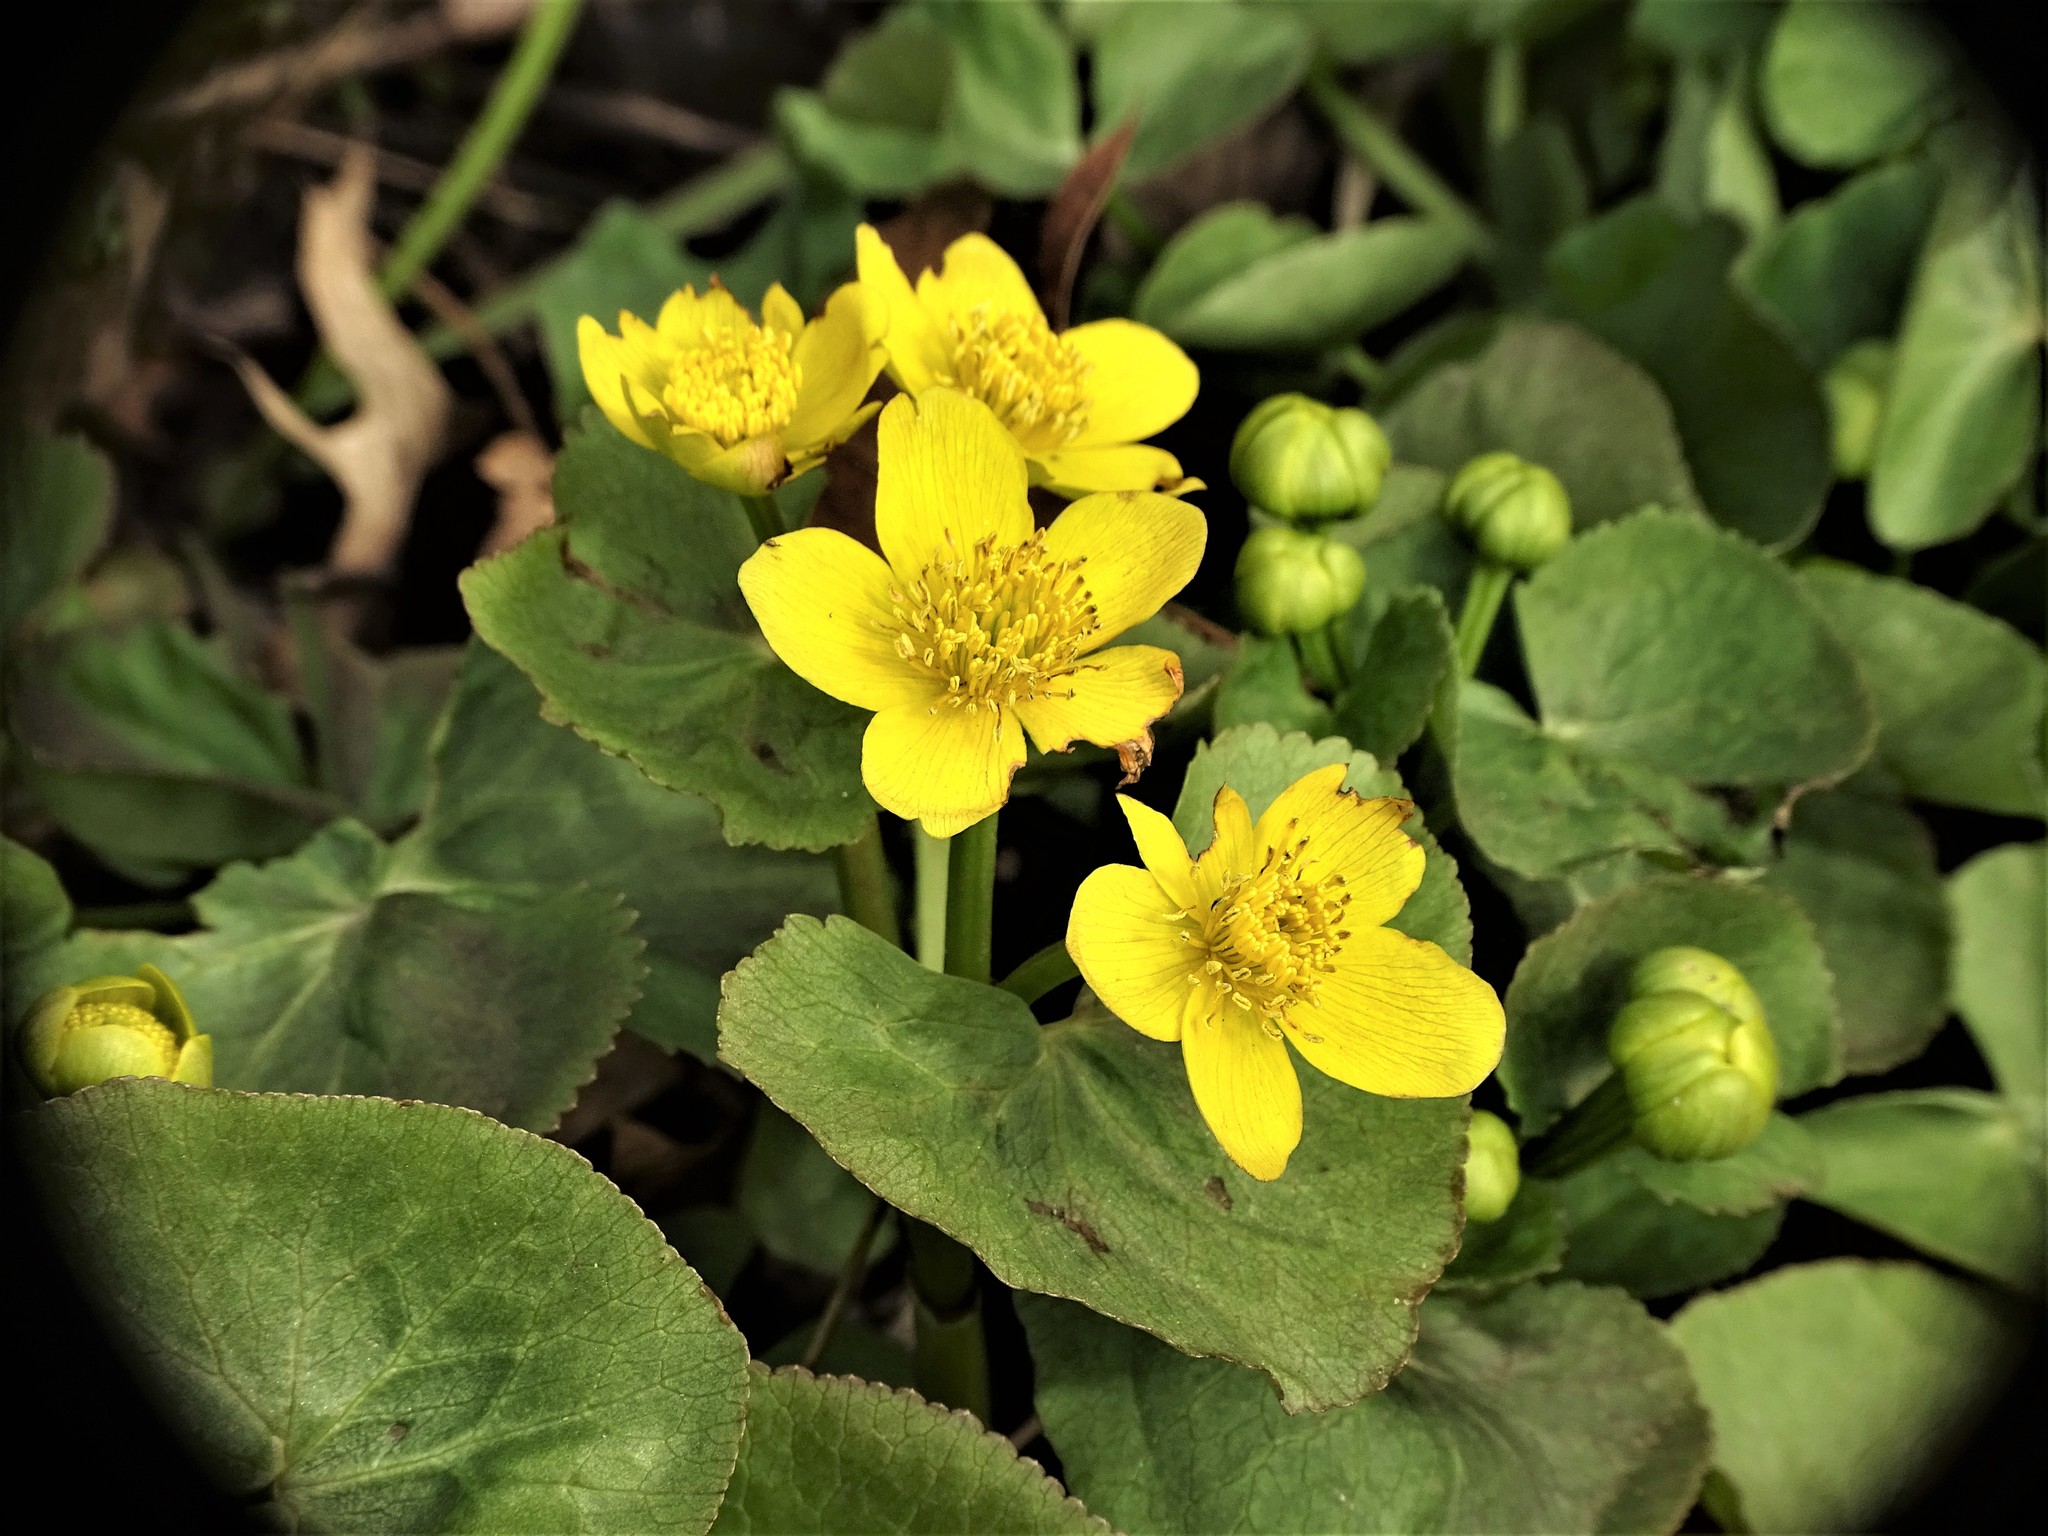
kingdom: Plantae
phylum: Tracheophyta
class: Magnoliopsida
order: Ranunculales
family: Ranunculaceae
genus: Caltha
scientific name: Caltha palustris
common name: Marsh marigold
